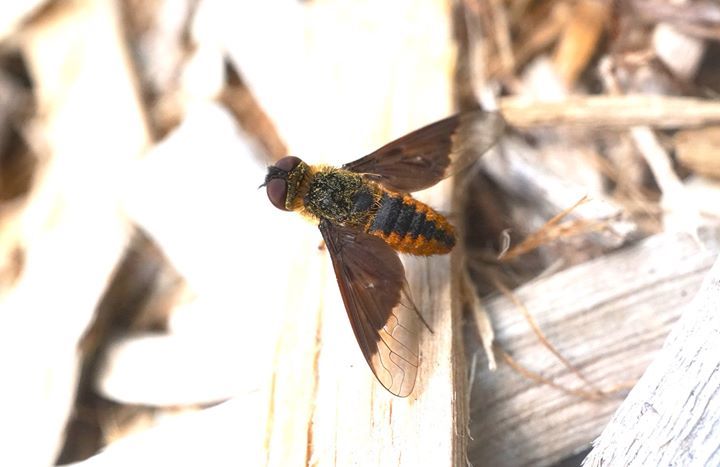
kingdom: Animalia
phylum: Arthropoda
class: Insecta
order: Diptera
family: Bombyliidae
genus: Chrysanthrax
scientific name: Chrysanthrax cypris
